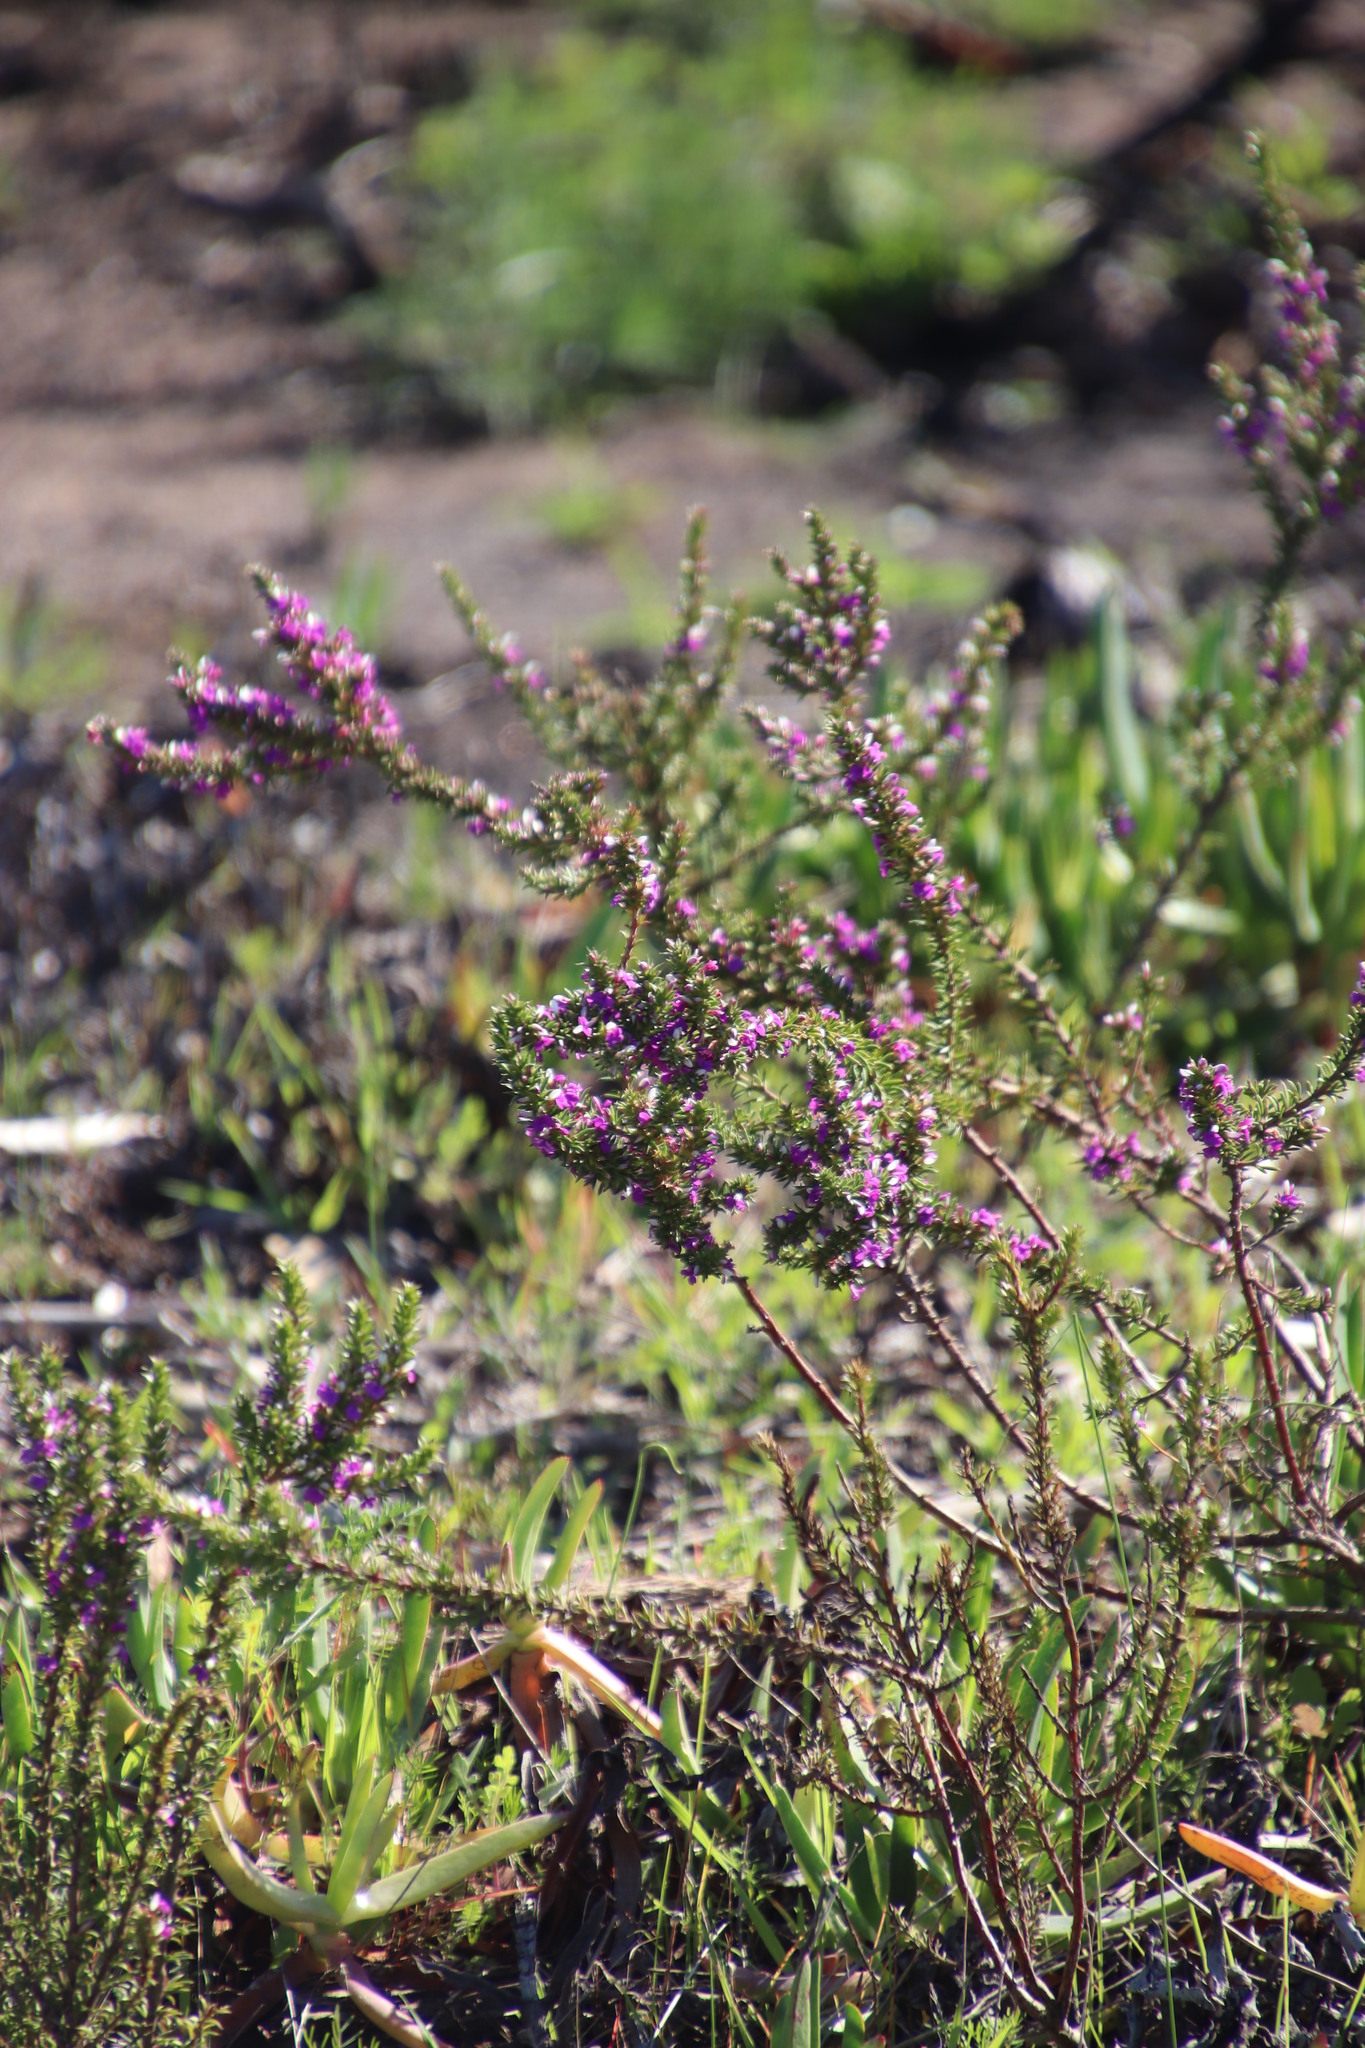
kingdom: Plantae
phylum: Tracheophyta
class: Magnoliopsida
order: Fabales
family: Polygalaceae
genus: Muraltia
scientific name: Muraltia heisteria
